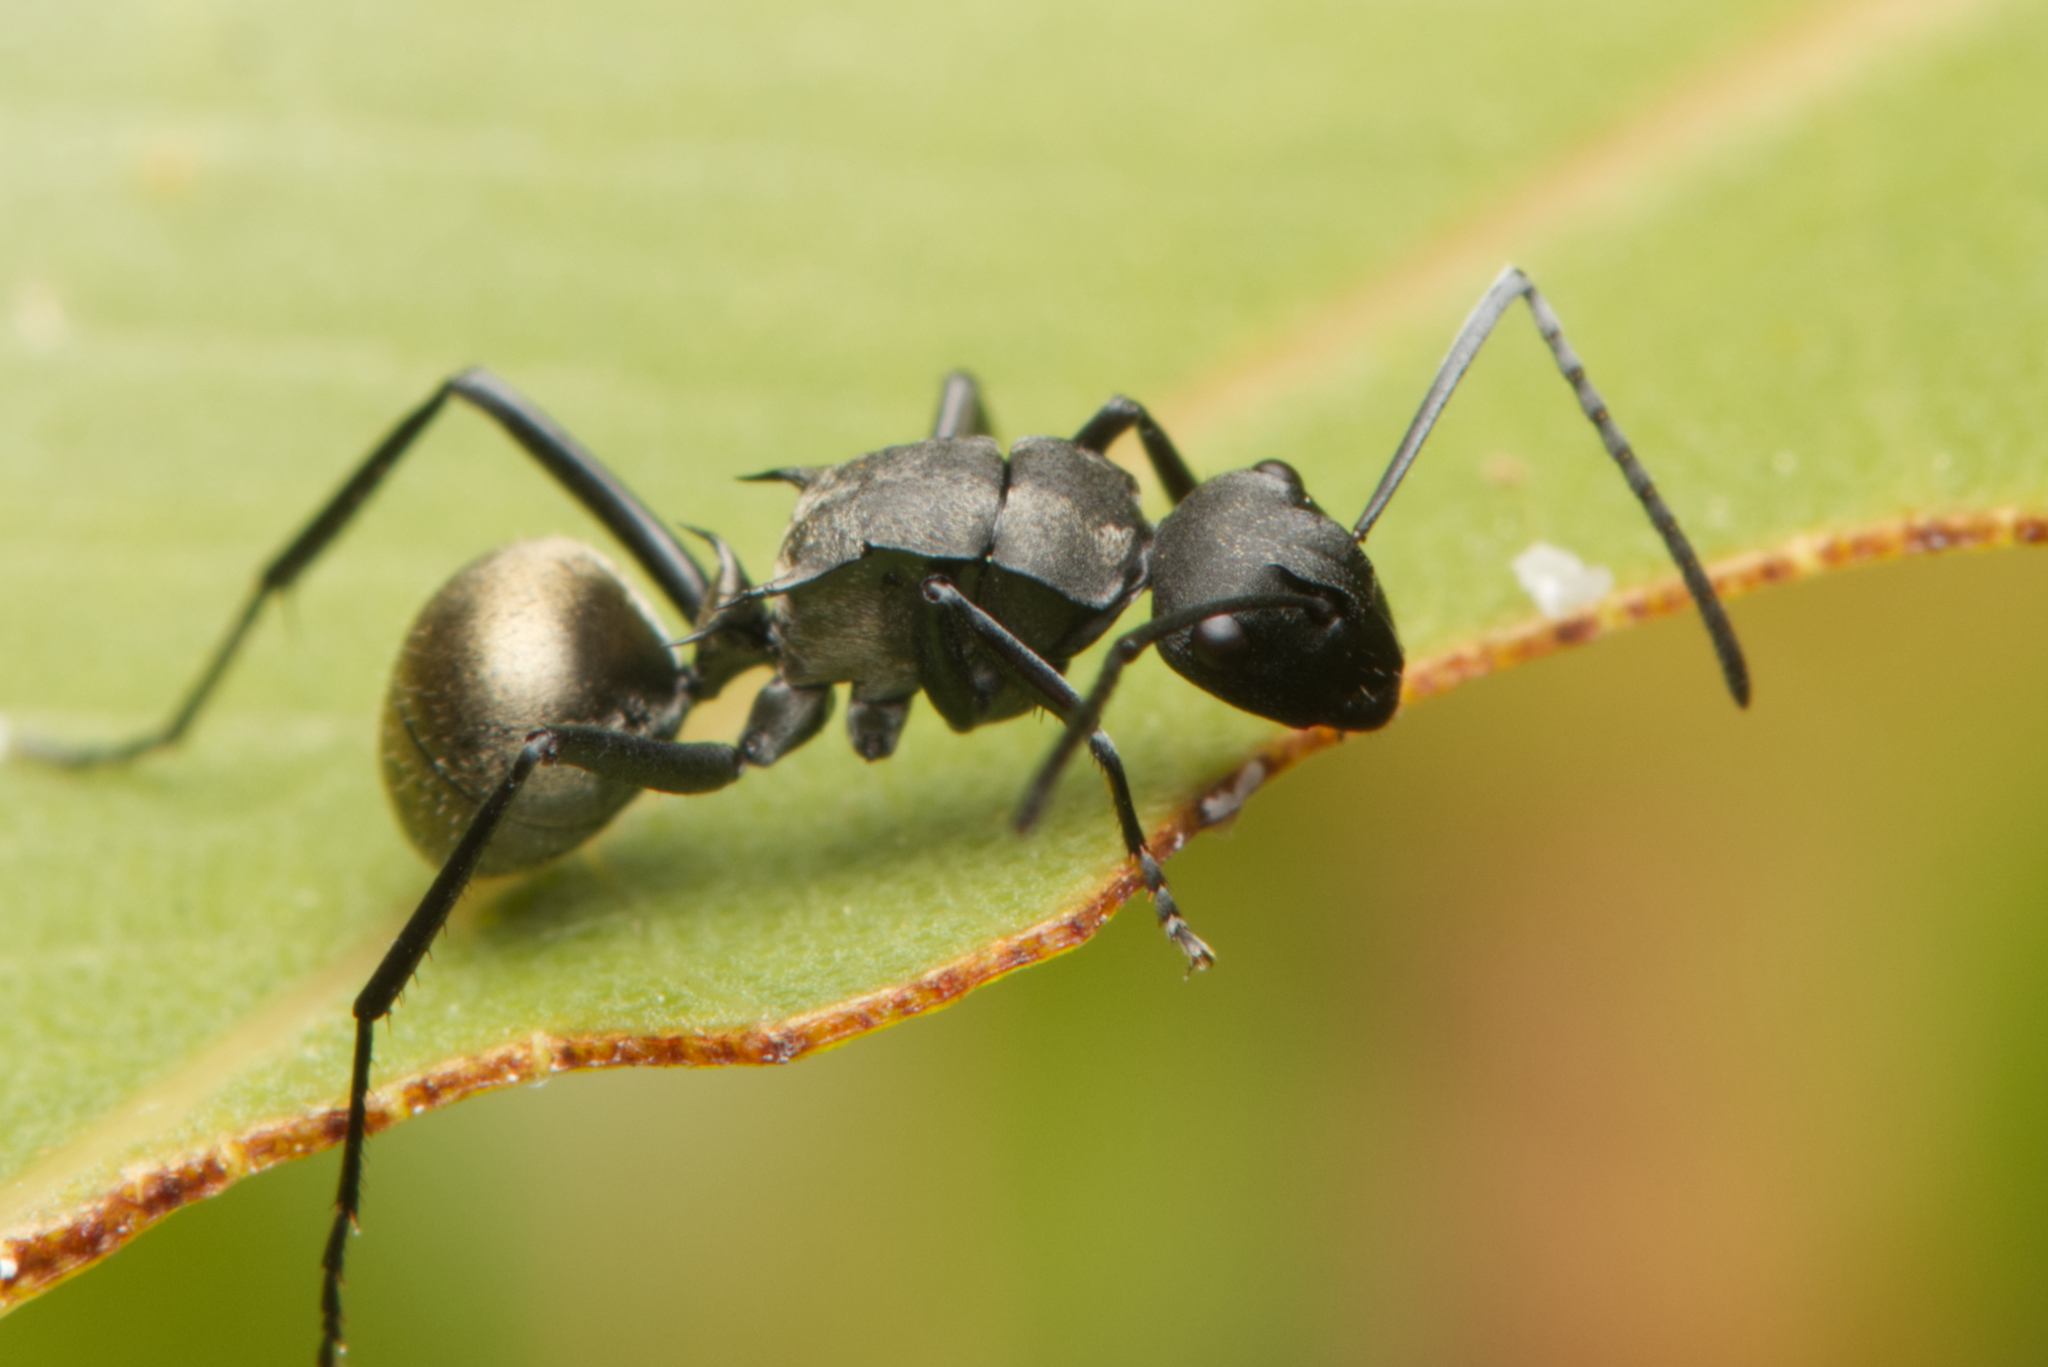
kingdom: Animalia
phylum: Arthropoda
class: Insecta
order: Hymenoptera
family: Formicidae
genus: Polyrhachis
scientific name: Polyrhachis
